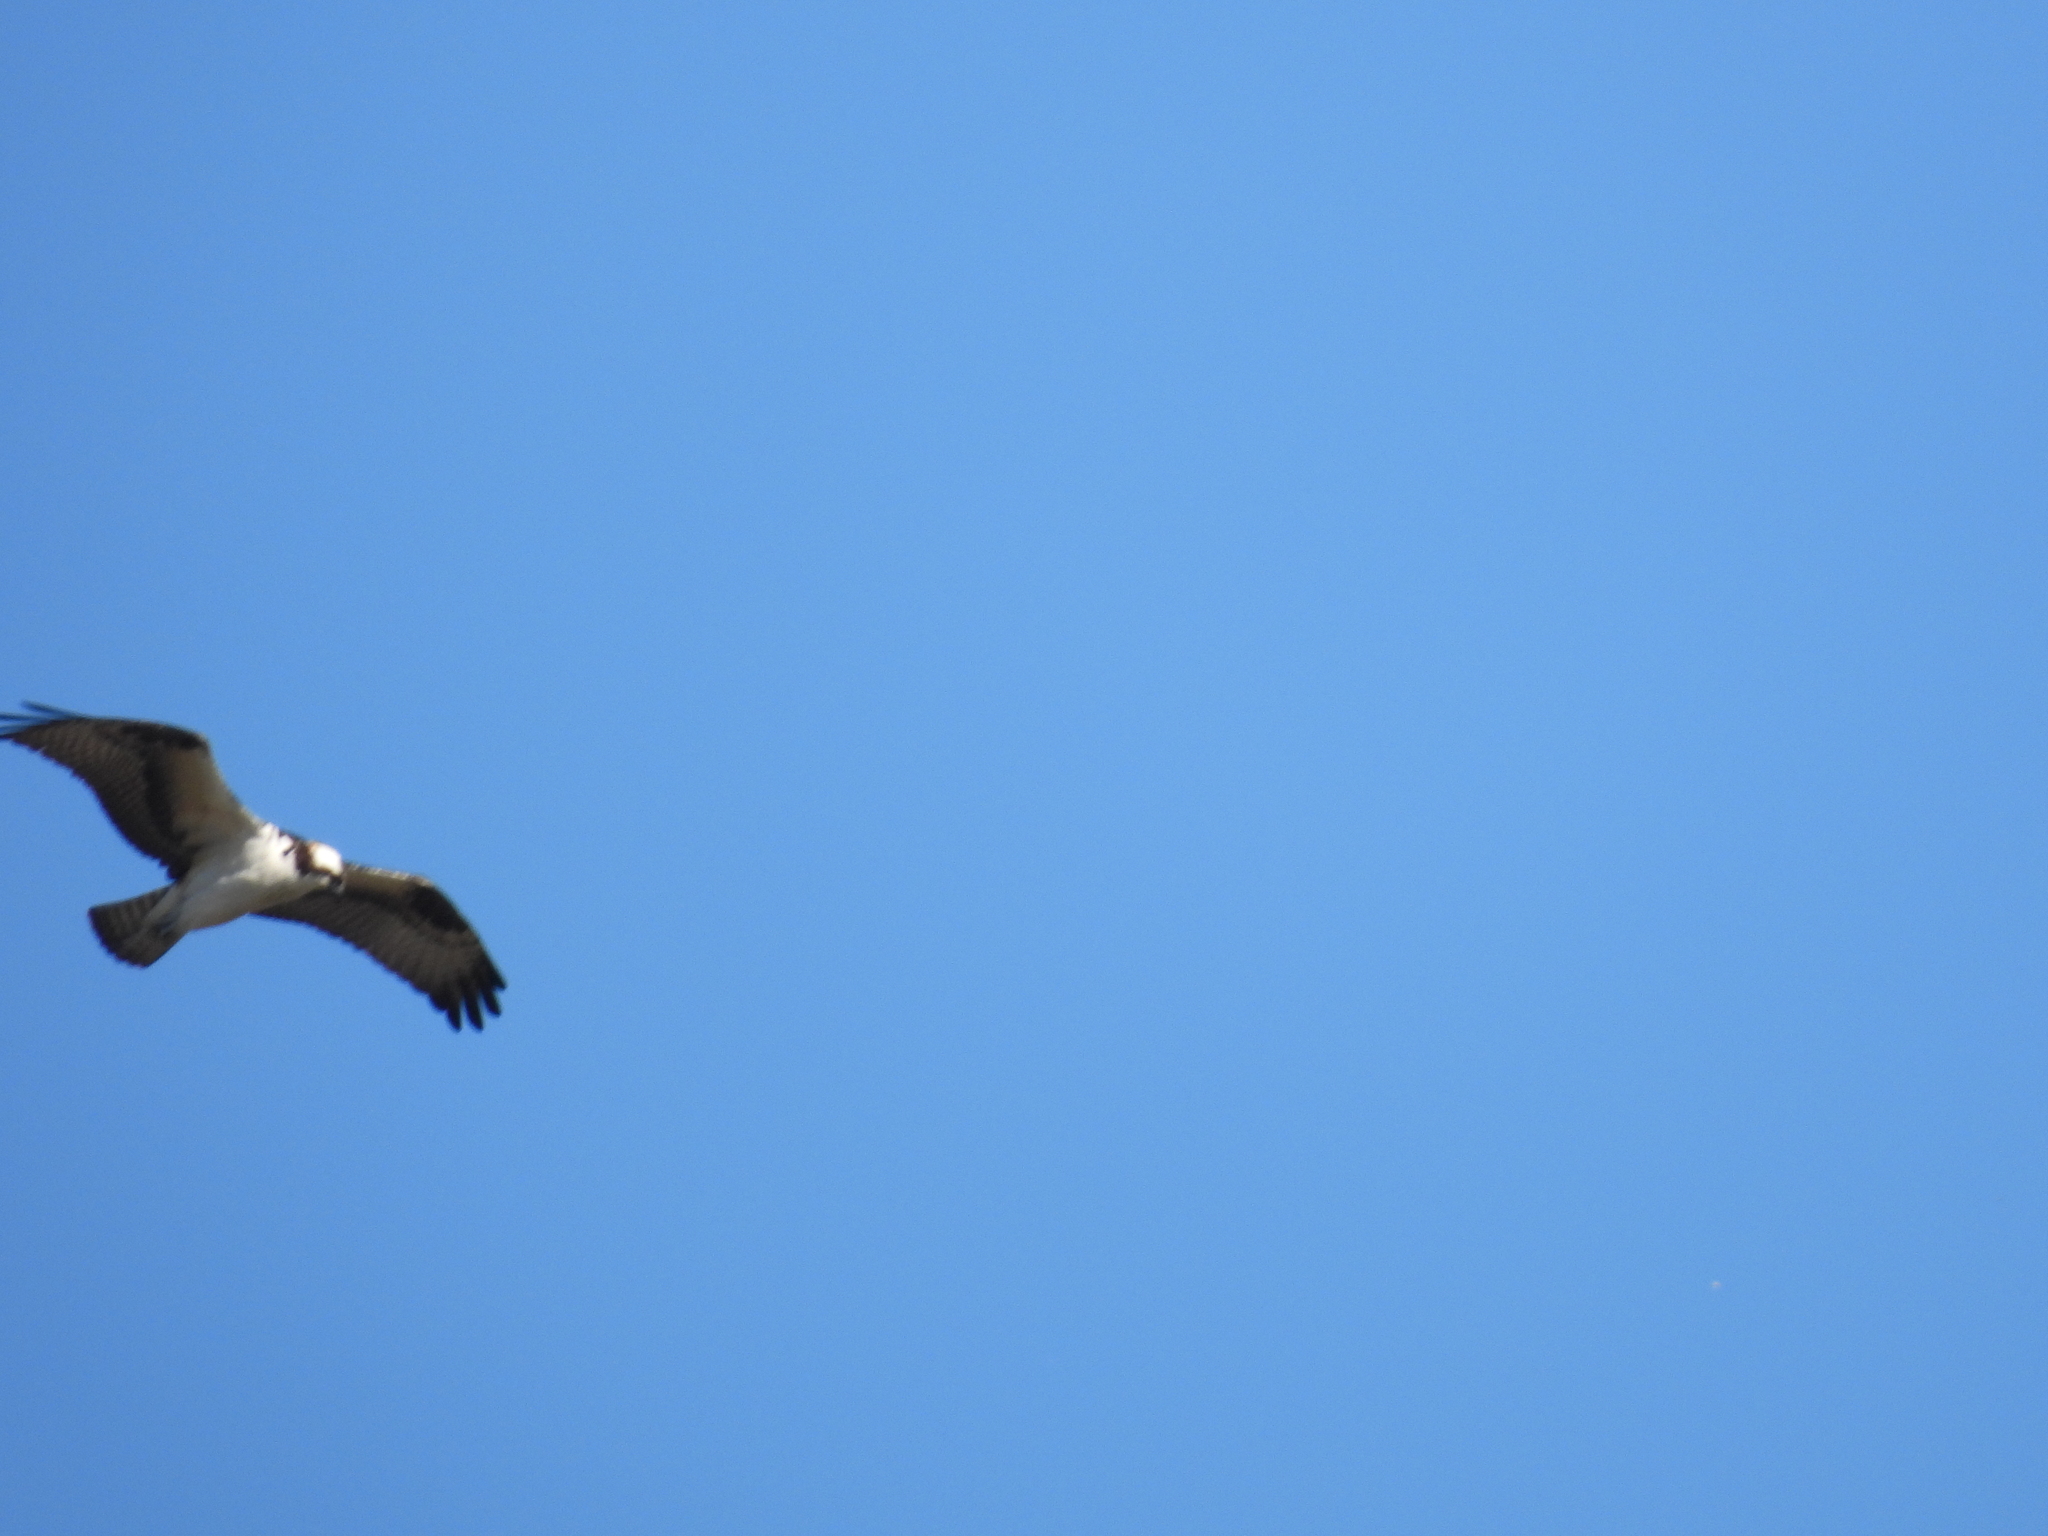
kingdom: Animalia
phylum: Chordata
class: Aves
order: Accipitriformes
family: Pandionidae
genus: Pandion
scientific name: Pandion haliaetus
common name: Osprey
